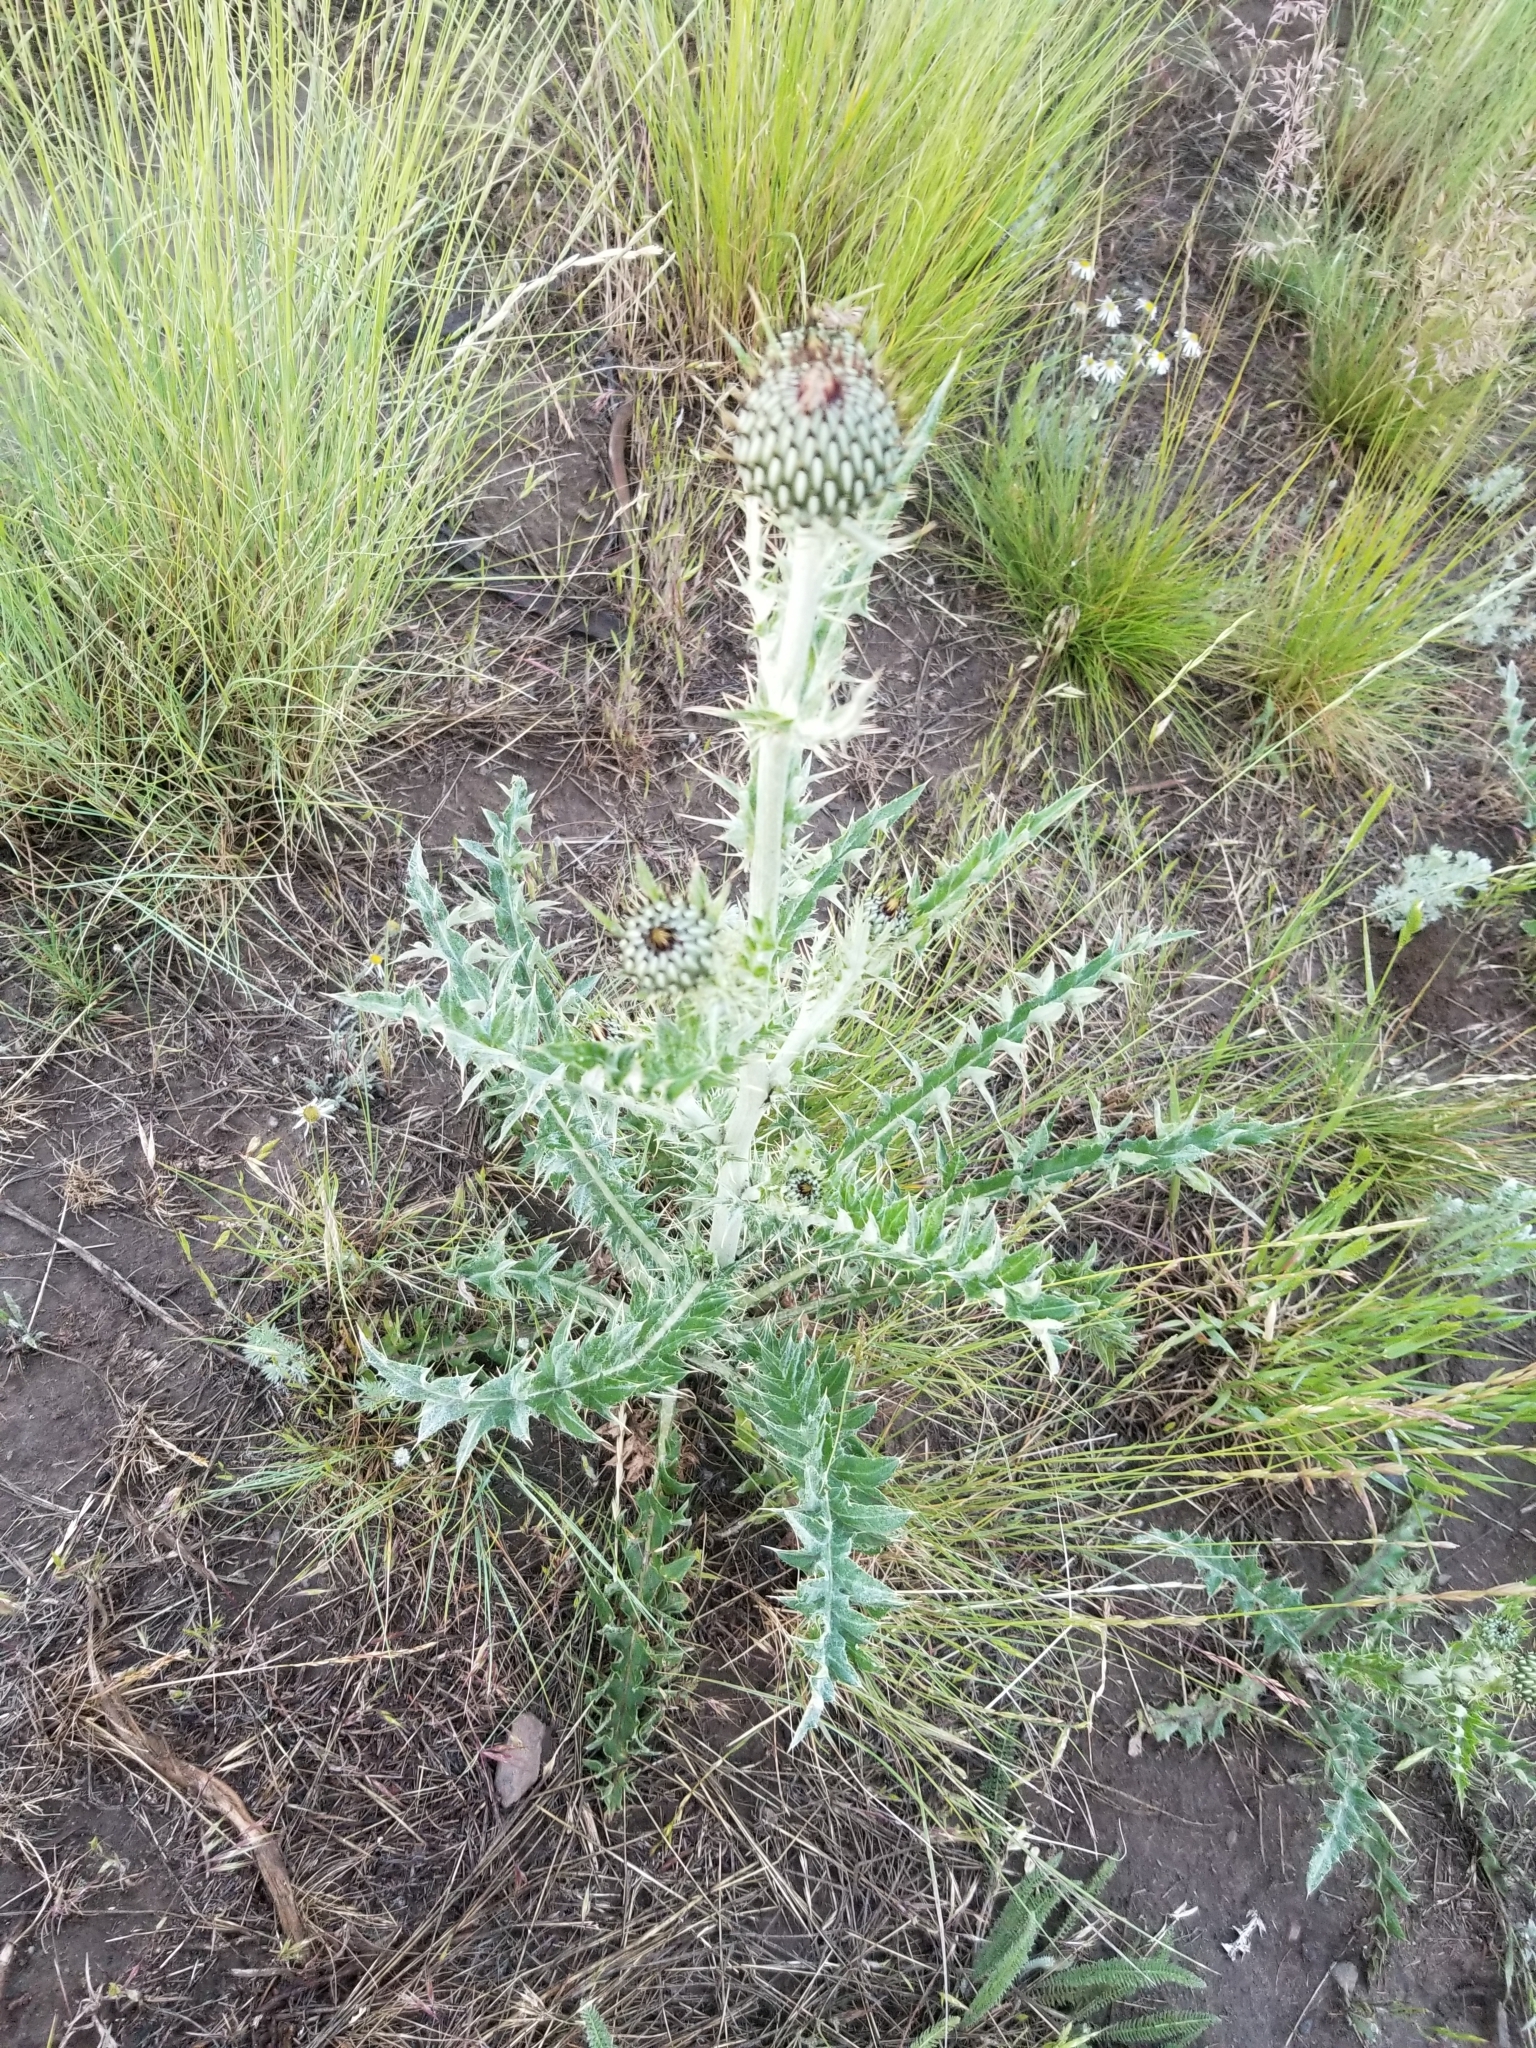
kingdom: Plantae
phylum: Tracheophyta
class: Magnoliopsida
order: Asterales
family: Asteraceae
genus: Cirsium
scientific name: Cirsium undulatum
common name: Pasture thistle
